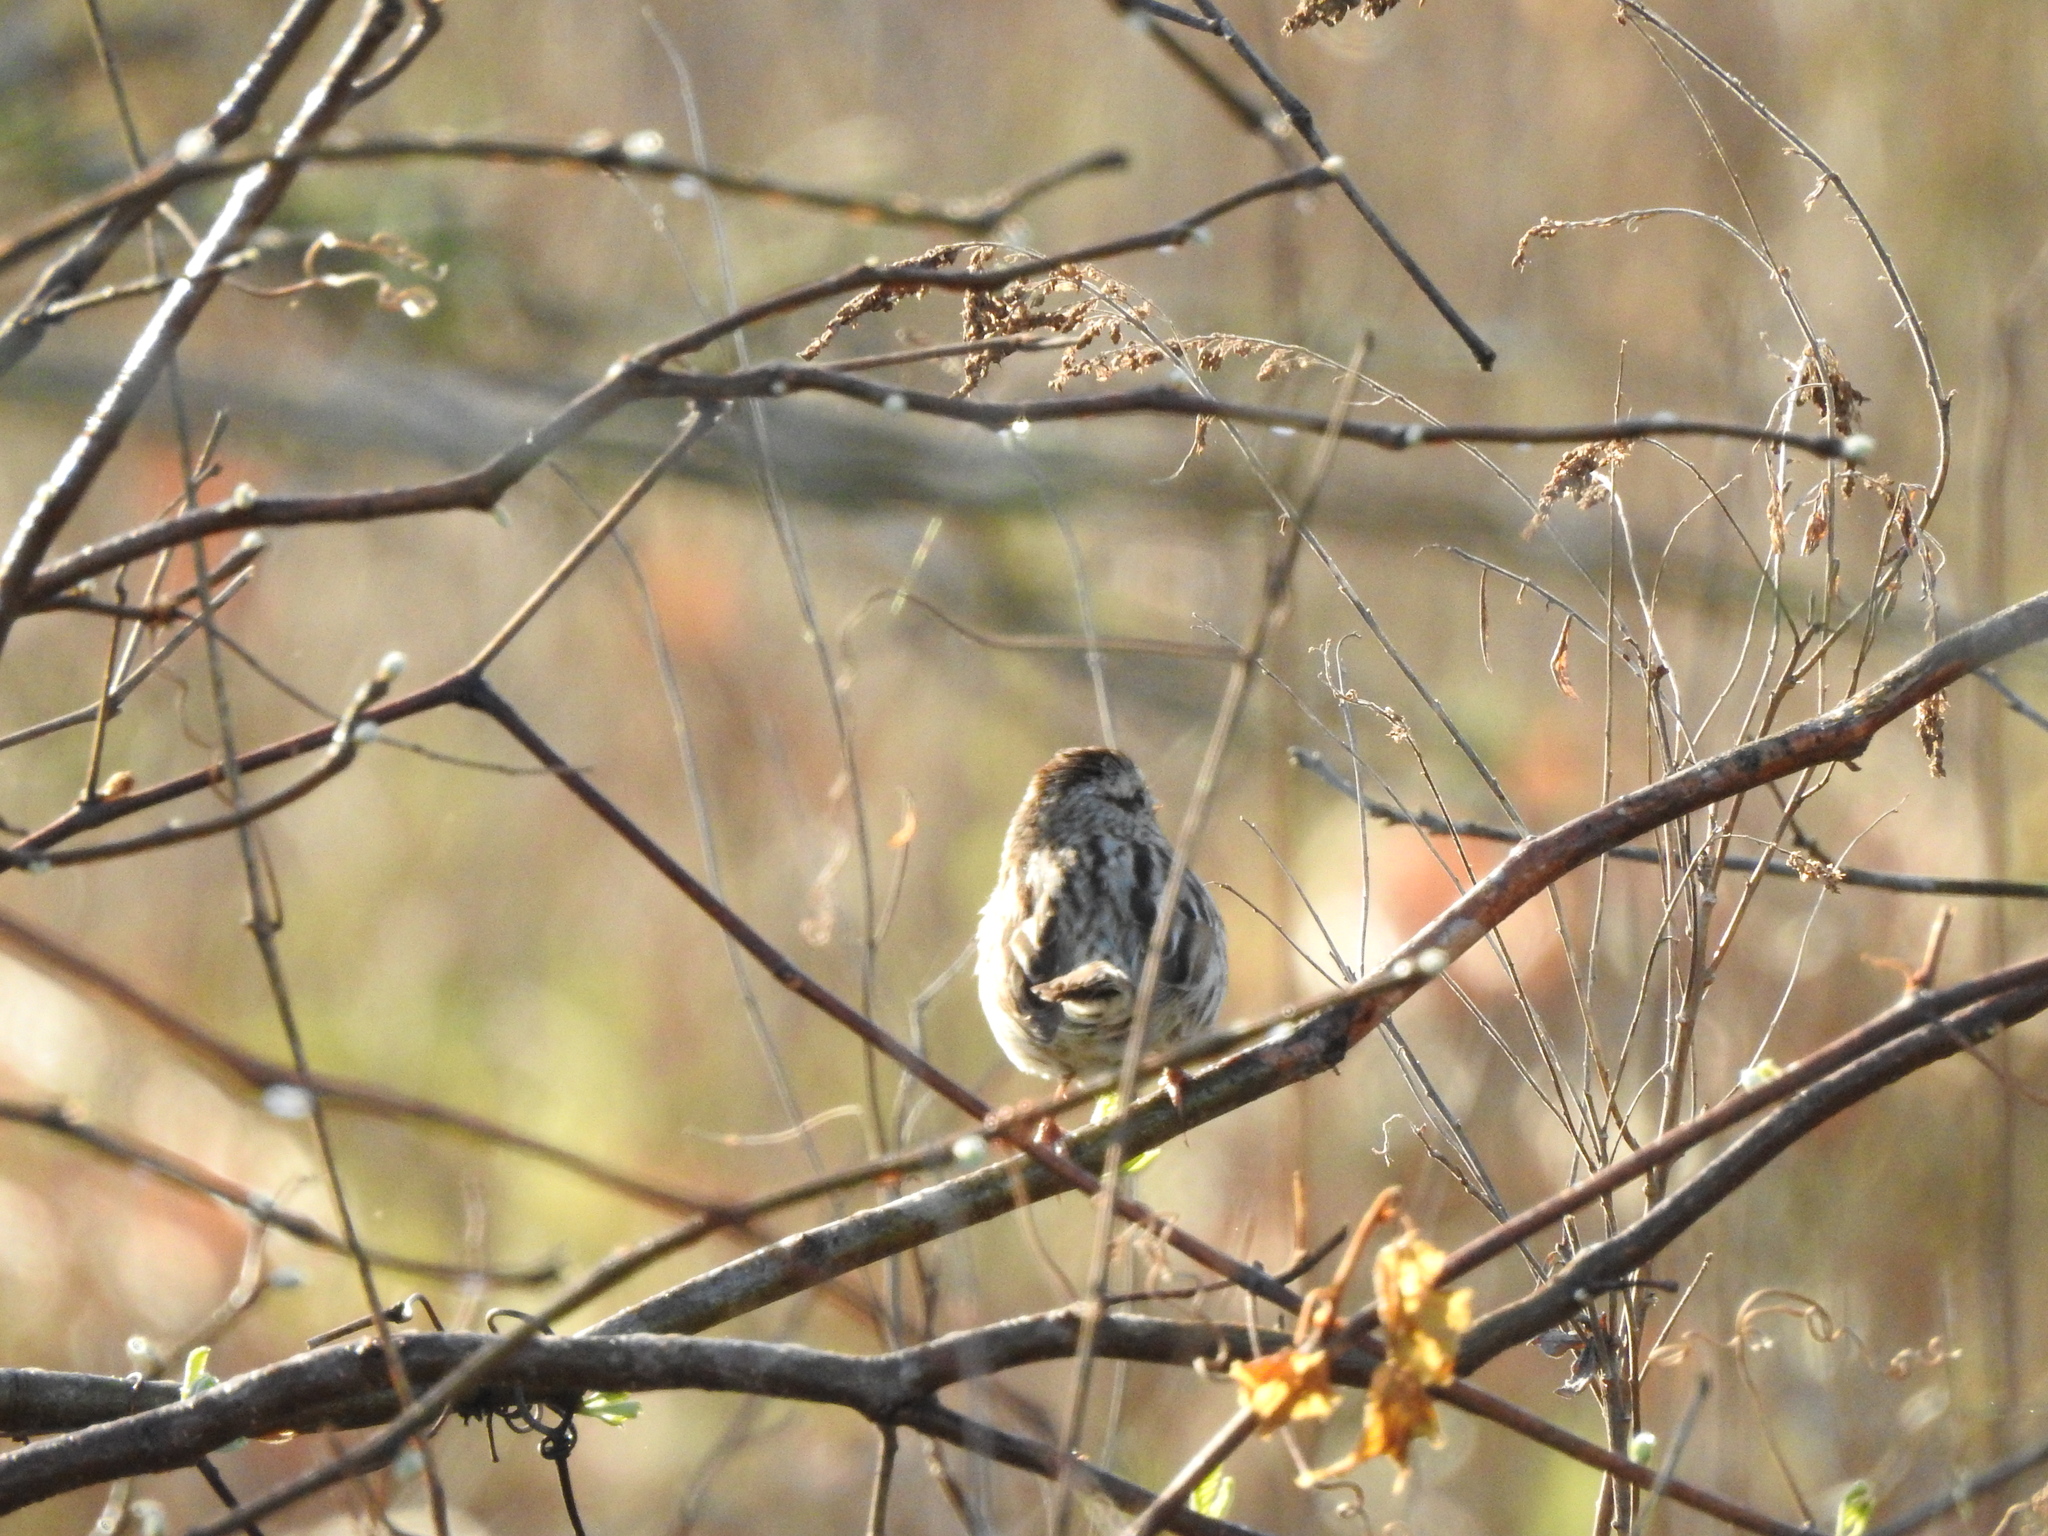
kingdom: Animalia
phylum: Chordata
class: Aves
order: Passeriformes
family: Passerellidae
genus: Melospiza
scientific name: Melospiza melodia
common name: Song sparrow
